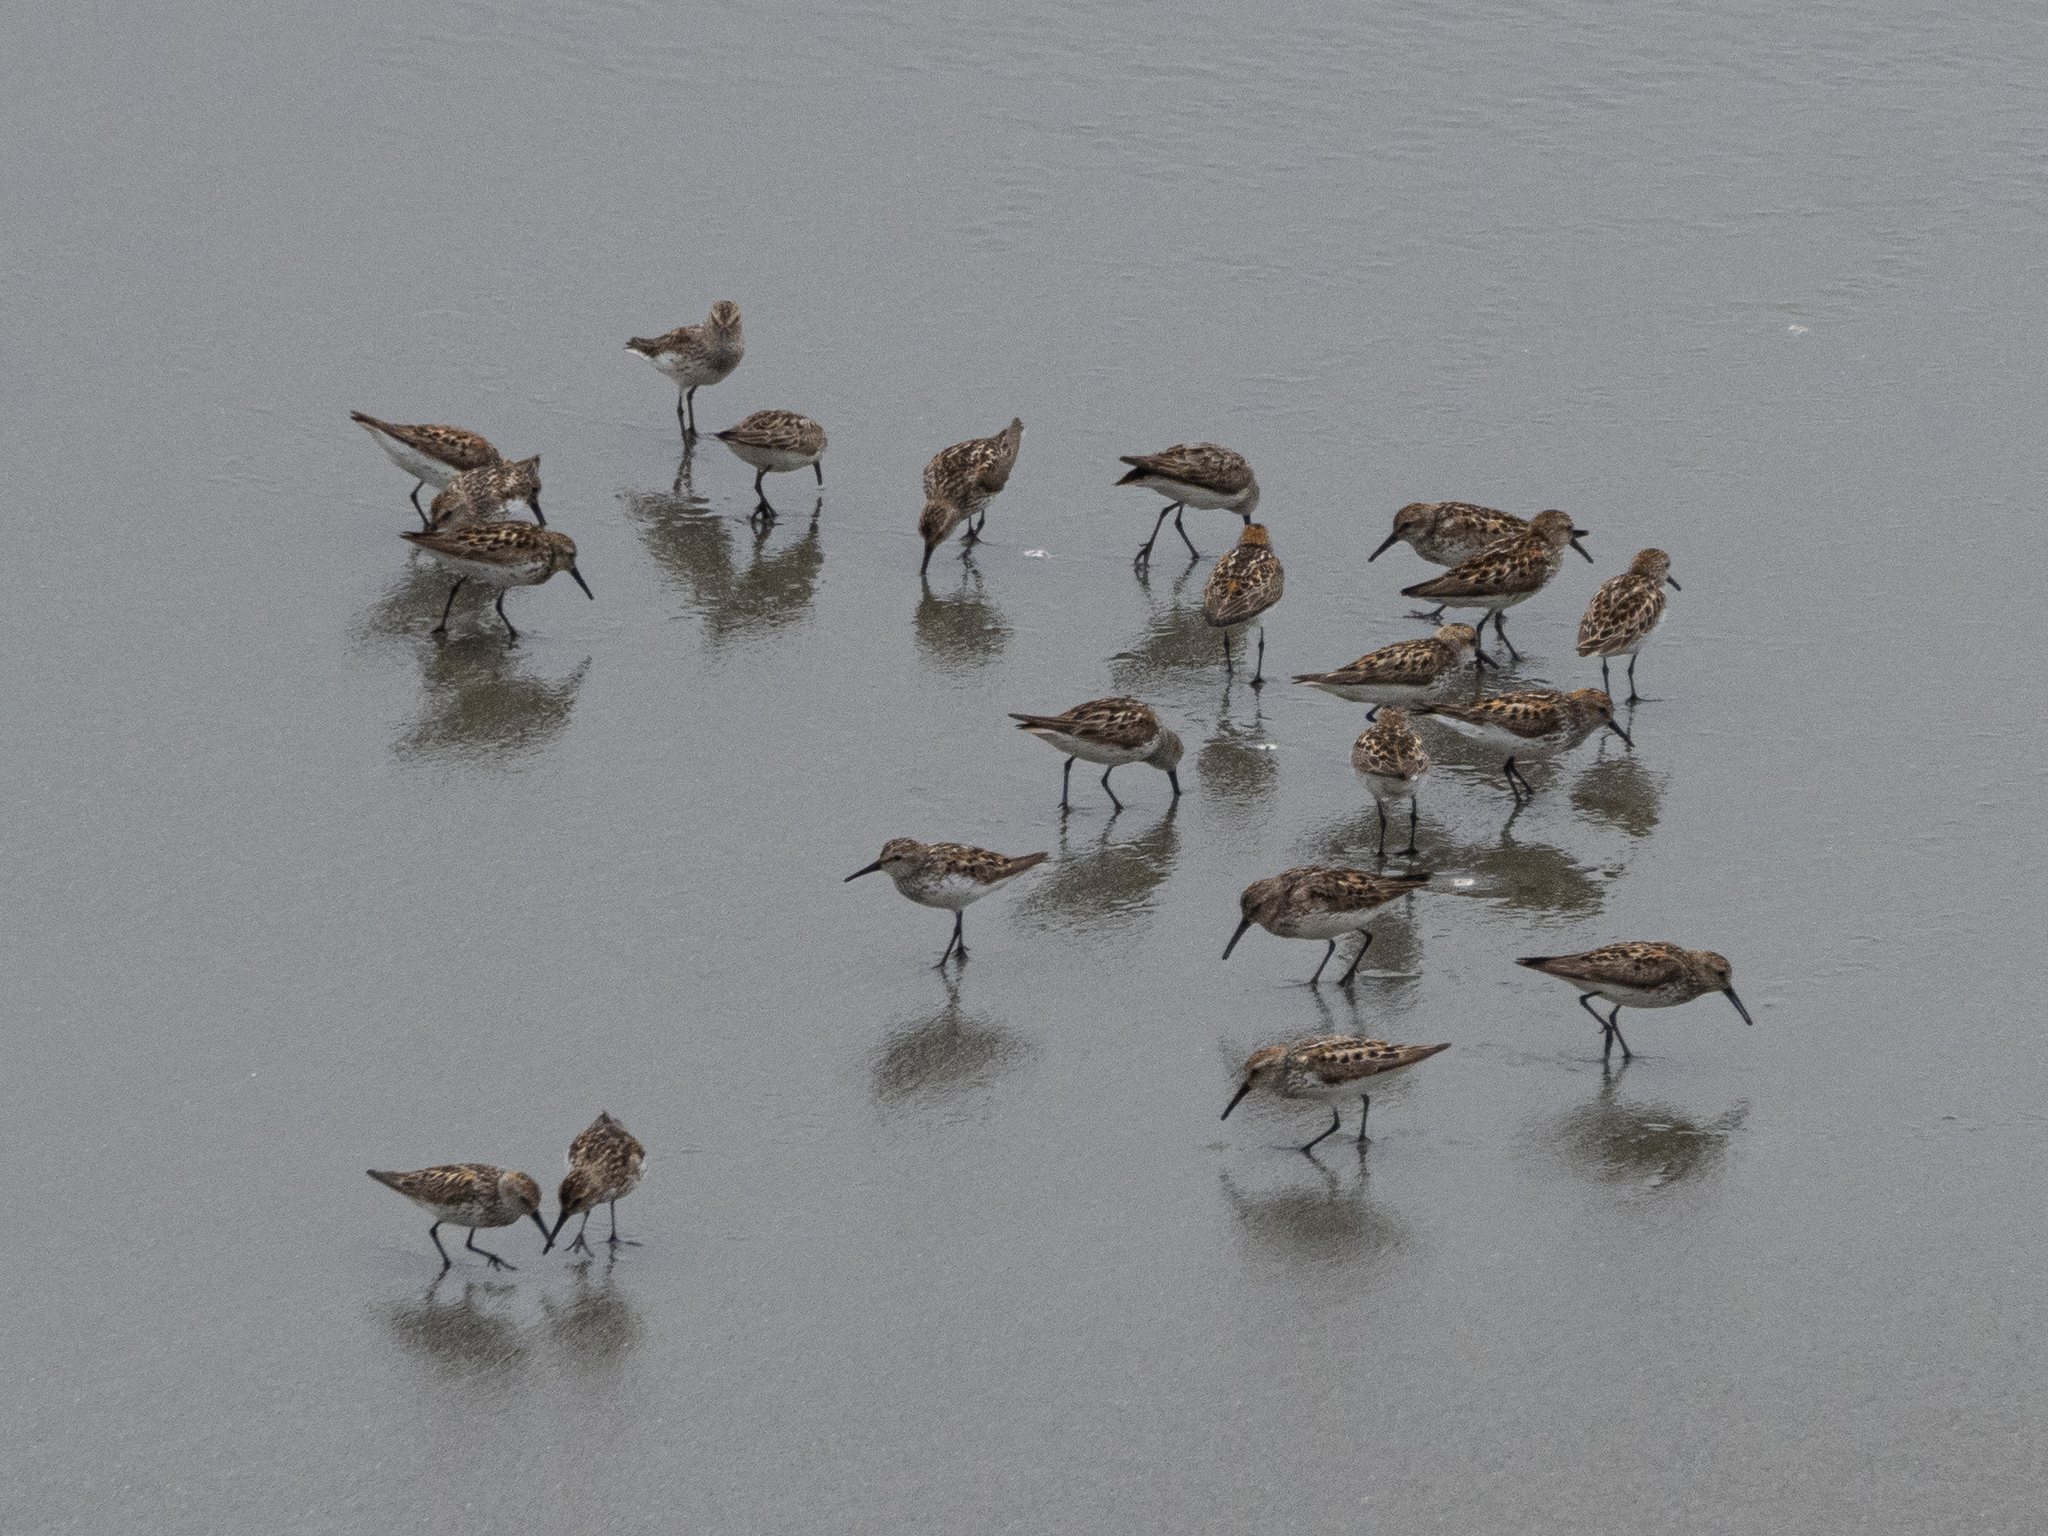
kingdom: Animalia
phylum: Chordata
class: Aves
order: Charadriiformes
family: Scolopacidae
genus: Calidris
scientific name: Calidris mauri
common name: Western sandpiper
